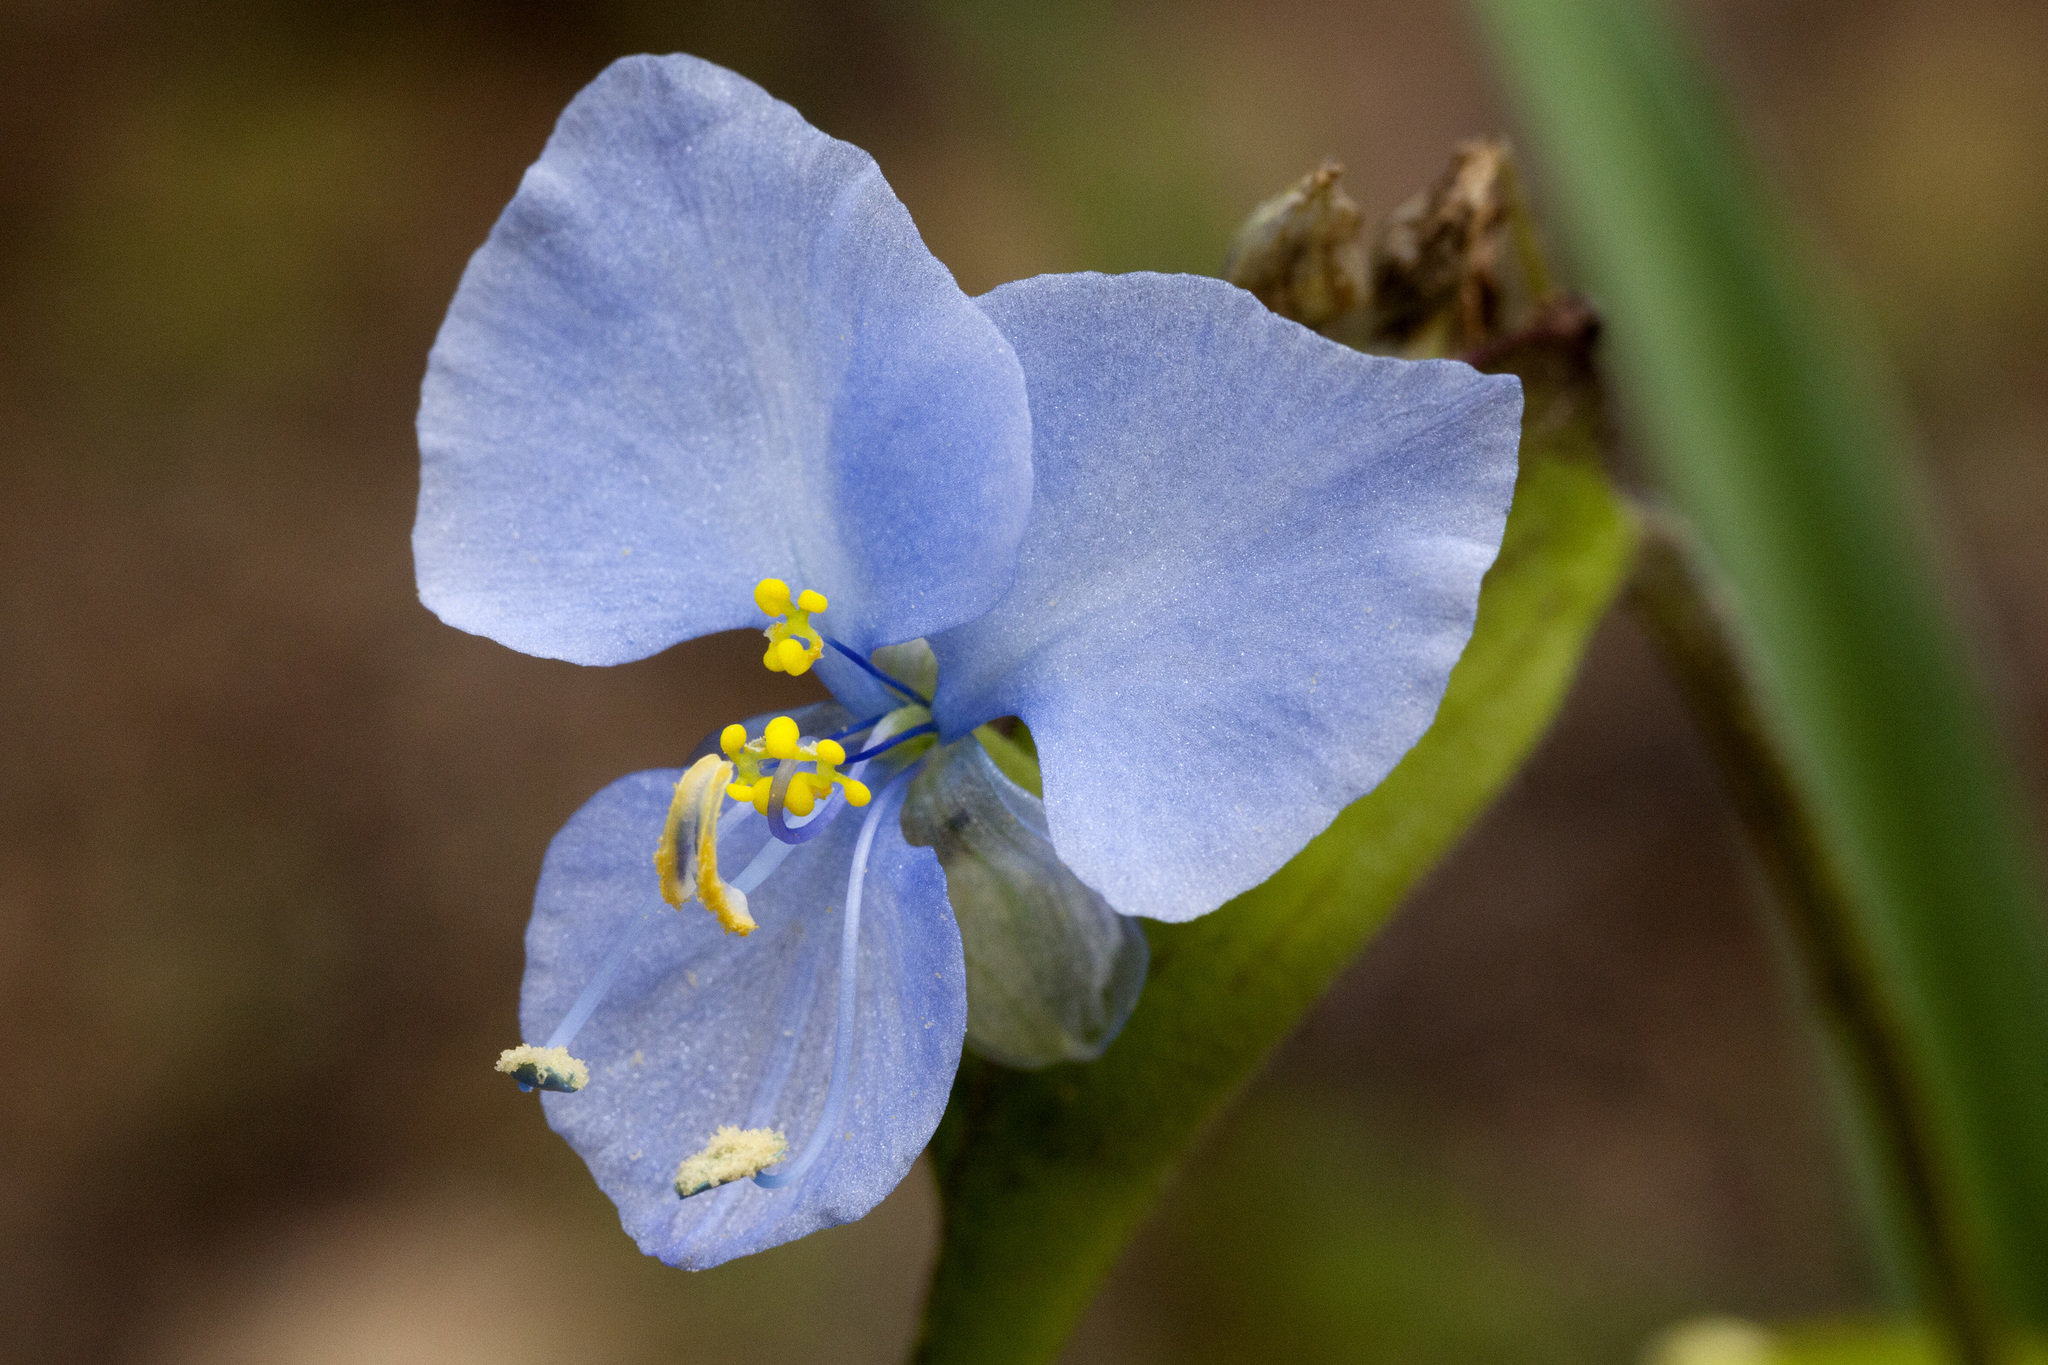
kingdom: Plantae
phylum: Tracheophyta
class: Liliopsida
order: Commelinales
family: Commelinaceae
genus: Commelina
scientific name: Commelina dianthifolia
